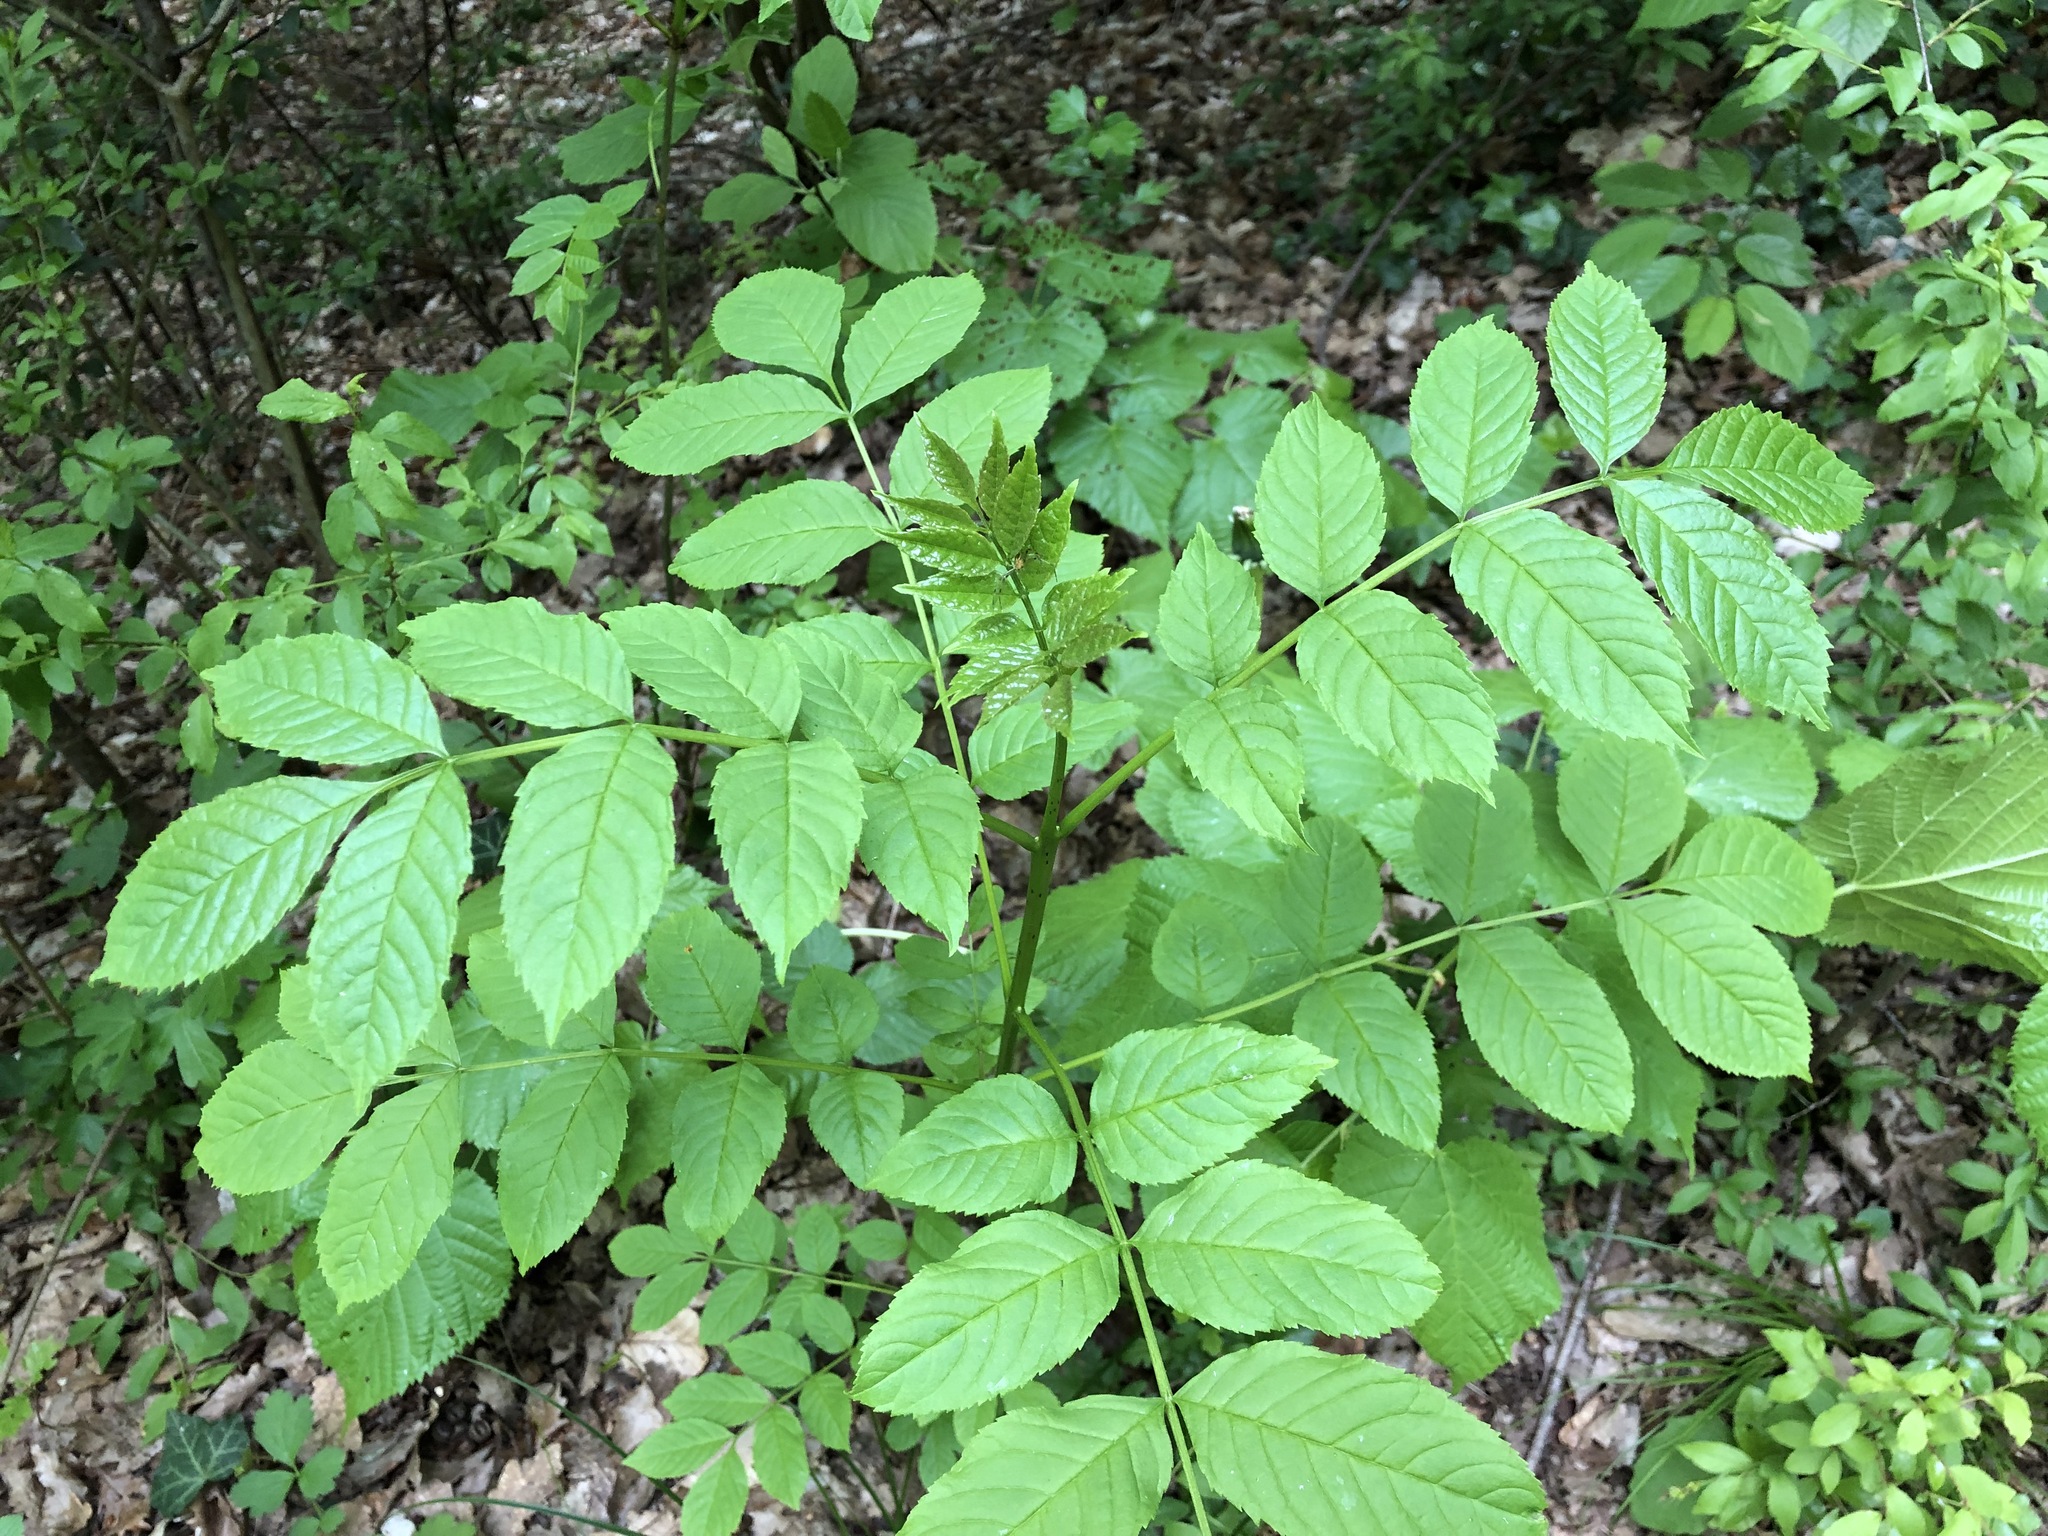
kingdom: Plantae
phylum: Tracheophyta
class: Magnoliopsida
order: Lamiales
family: Oleaceae
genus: Fraxinus
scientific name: Fraxinus excelsior
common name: European ash
